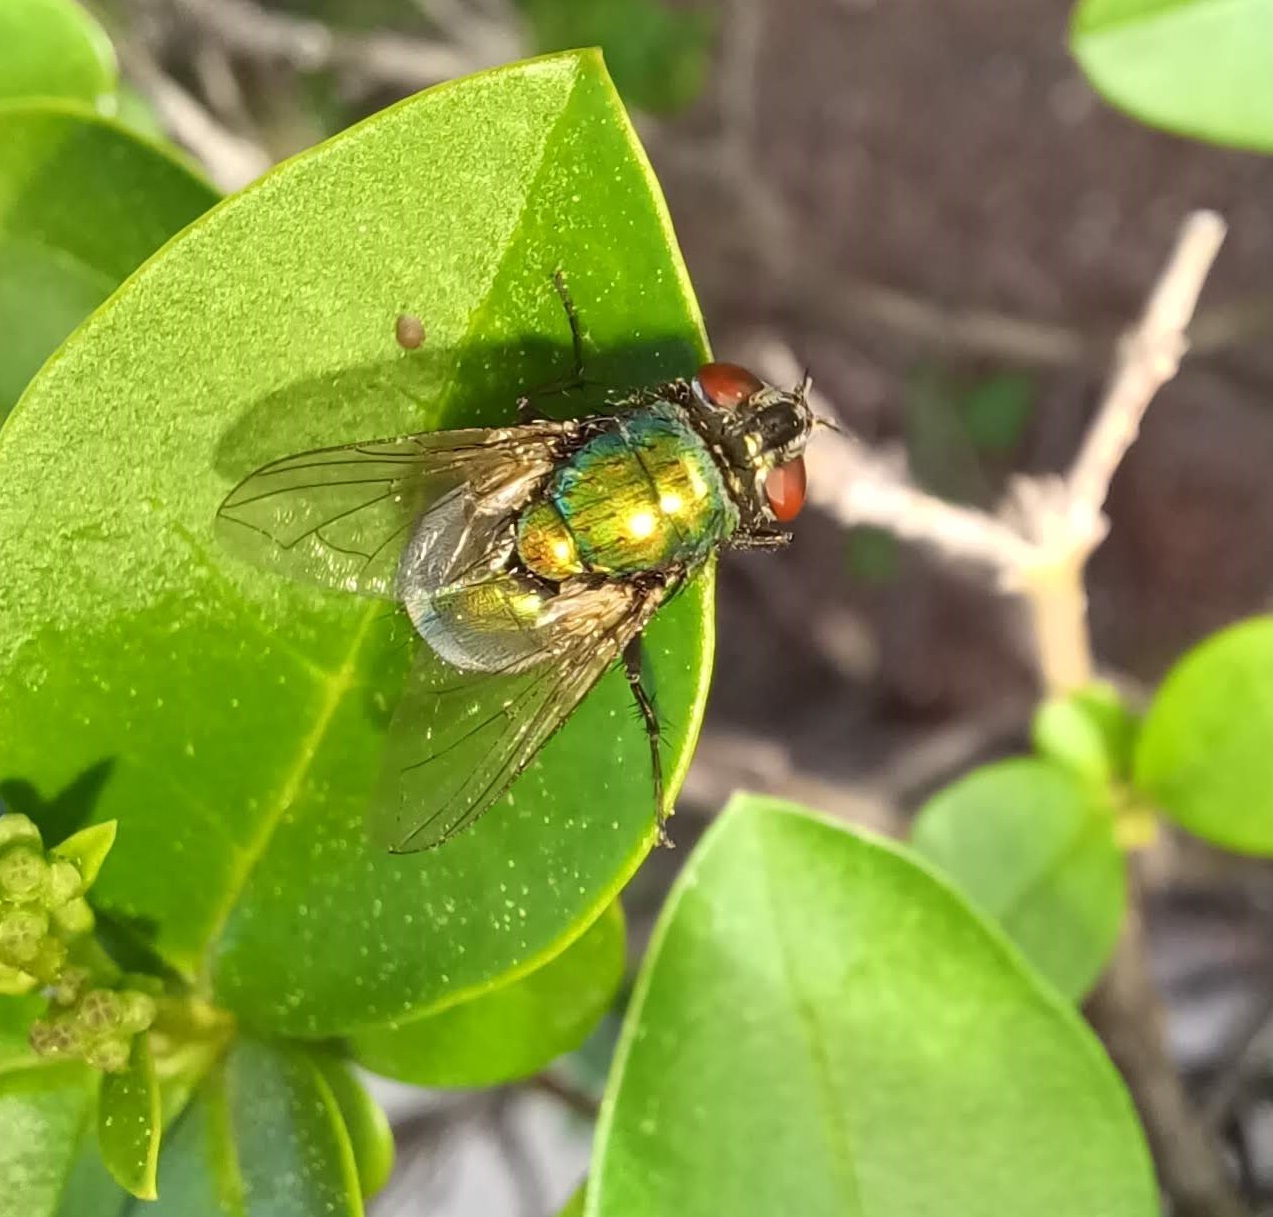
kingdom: Animalia
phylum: Arthropoda
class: Insecta
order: Diptera
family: Calliphoridae
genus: Lucilia
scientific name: Lucilia sericata
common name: Blow fly
